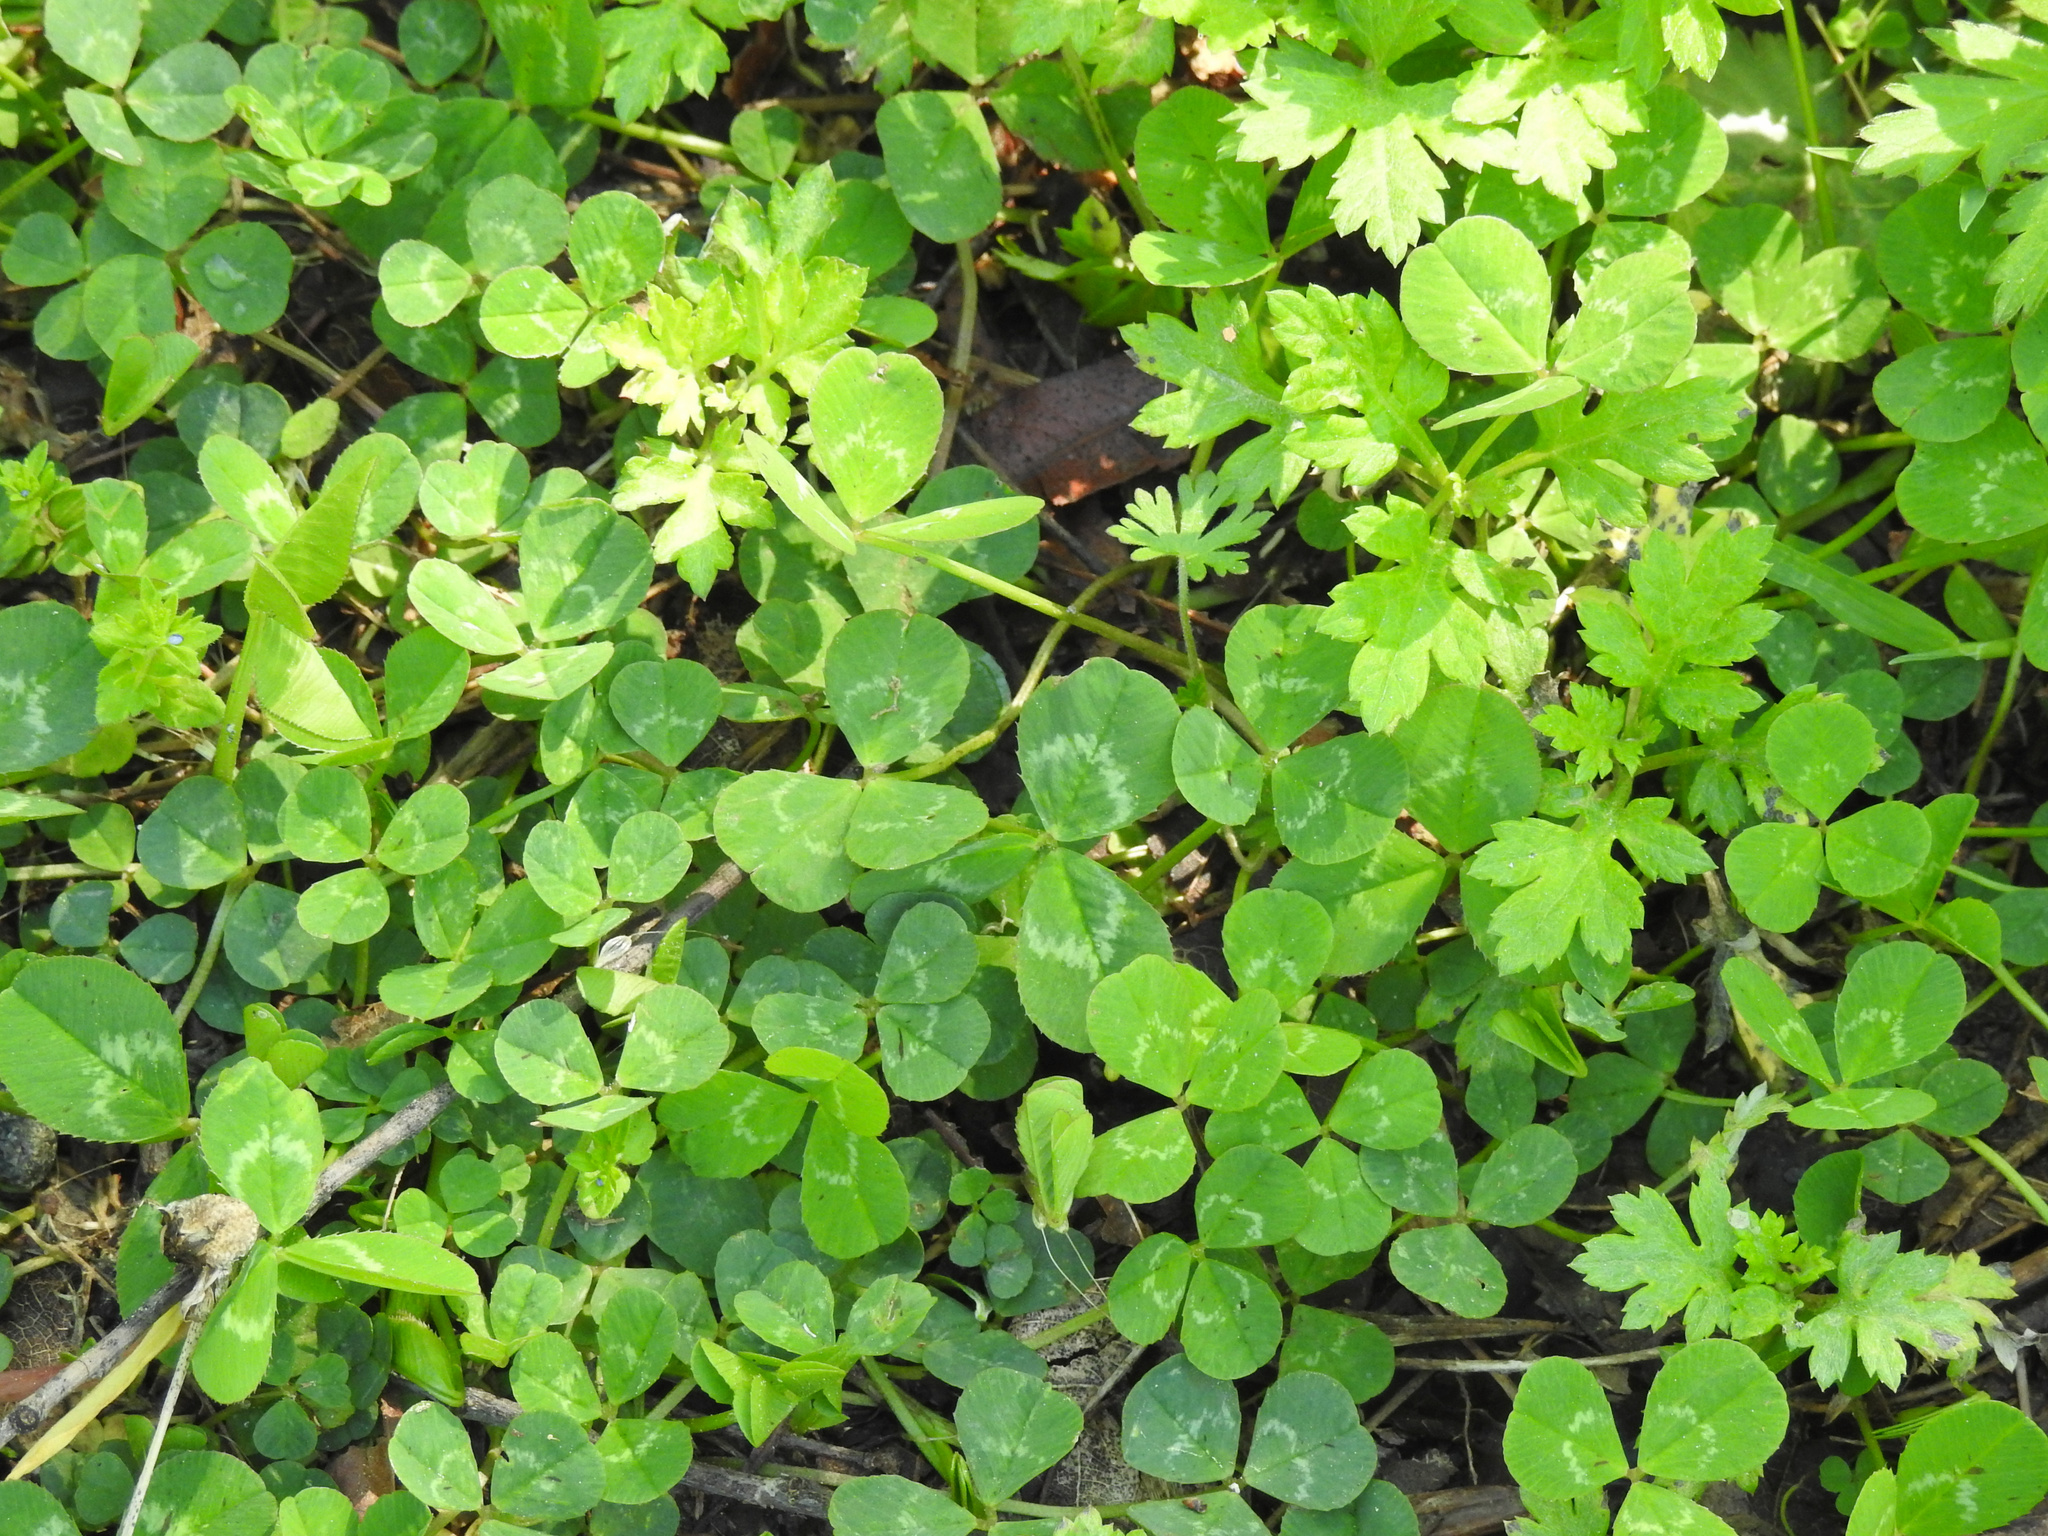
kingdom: Plantae
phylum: Tracheophyta
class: Magnoliopsida
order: Fabales
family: Fabaceae
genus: Trifolium
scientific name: Trifolium repens
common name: White clover
